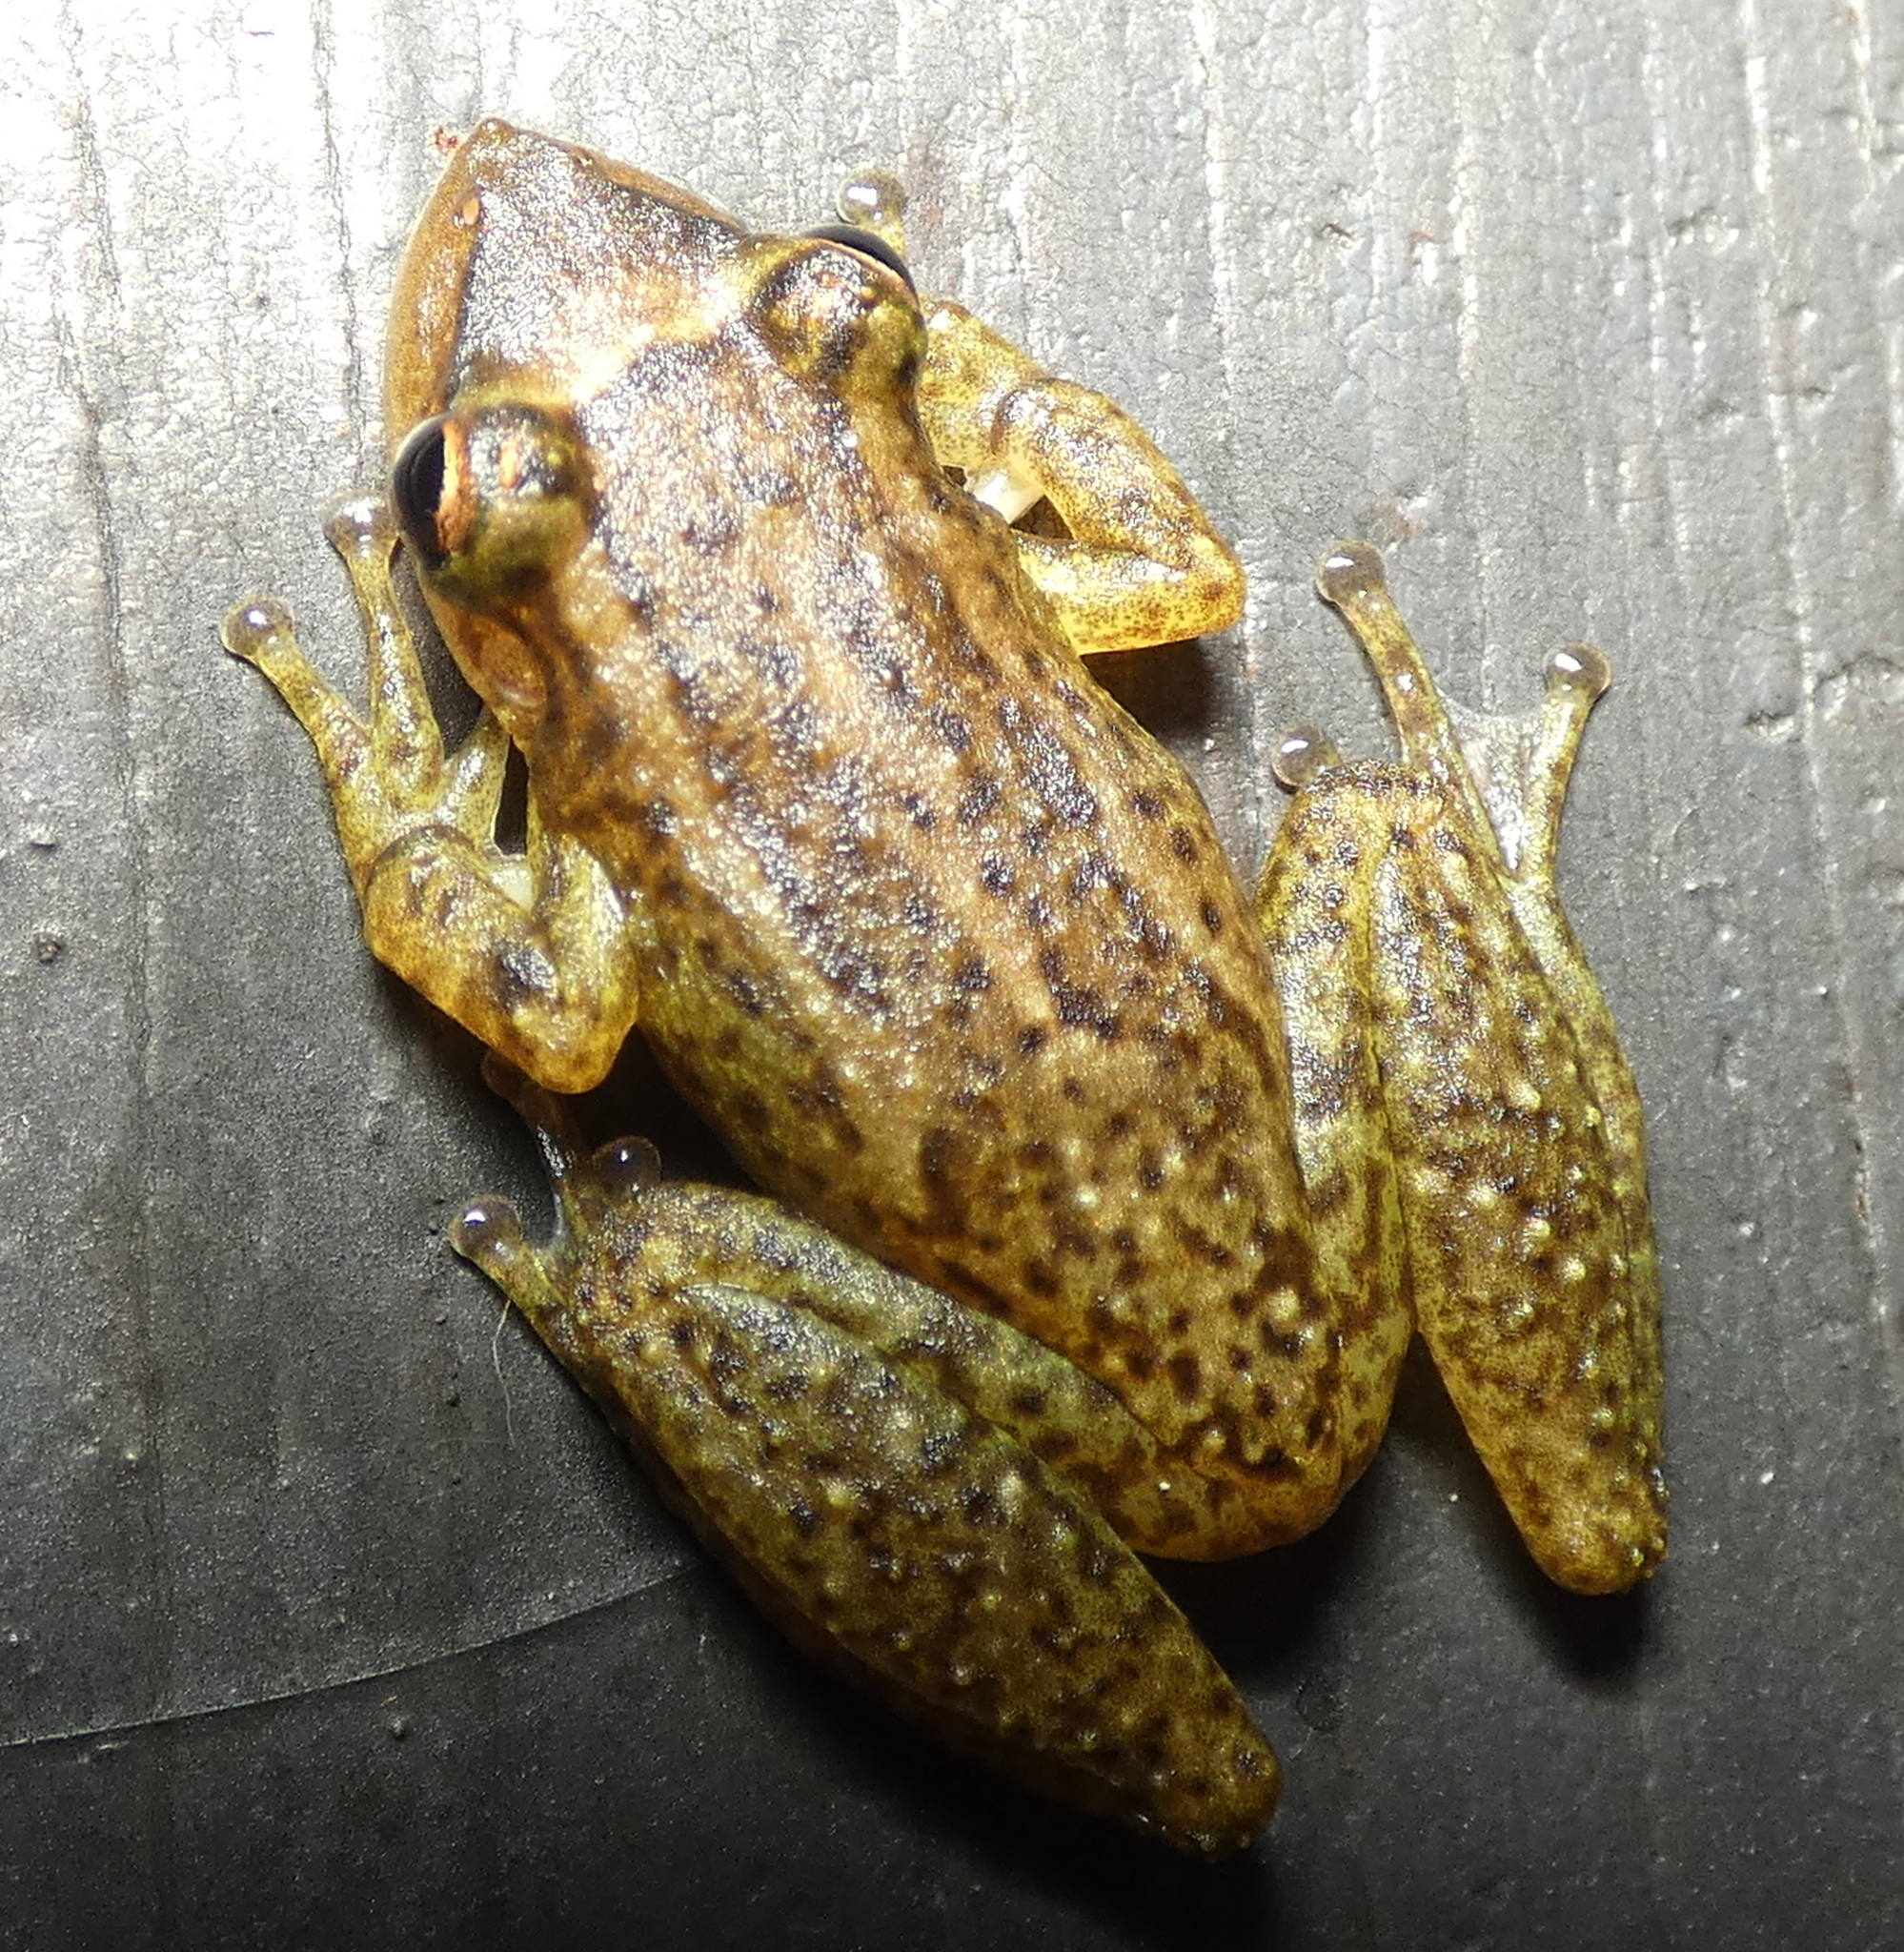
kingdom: Animalia
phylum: Chordata
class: Amphibia
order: Anura
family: Hylidae
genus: Scinax
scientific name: Scinax auratus
